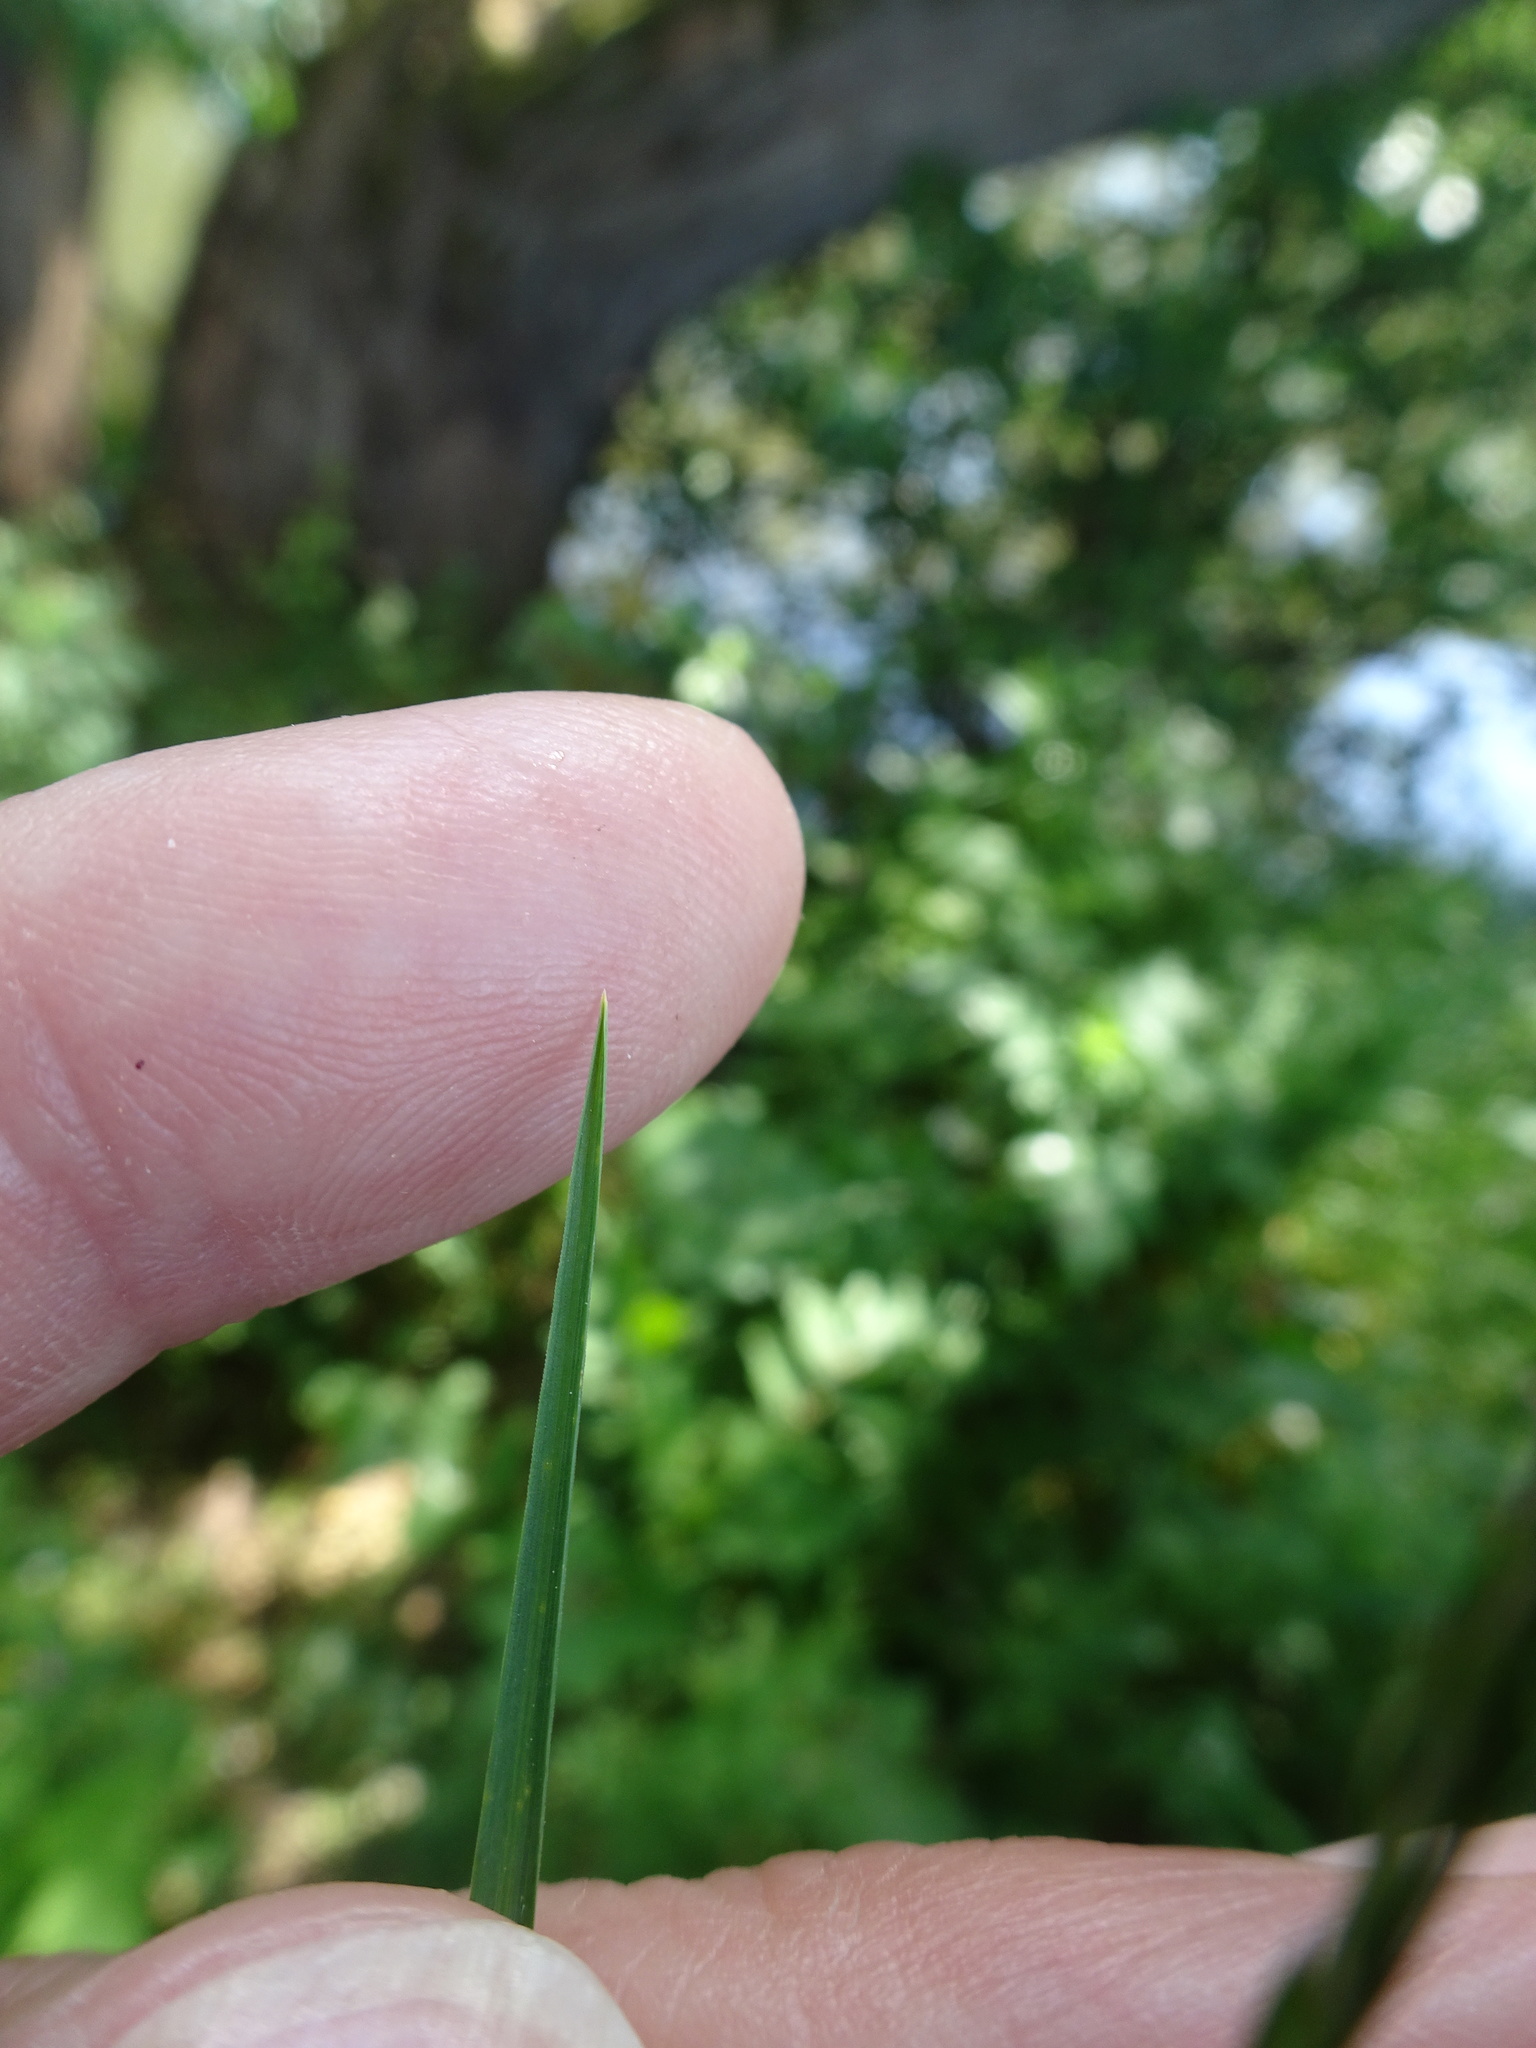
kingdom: Plantae
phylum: Tracheophyta
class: Liliopsida
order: Poales
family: Poaceae
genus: Poa
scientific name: Poa nemoralis
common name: Wood bluegrass
